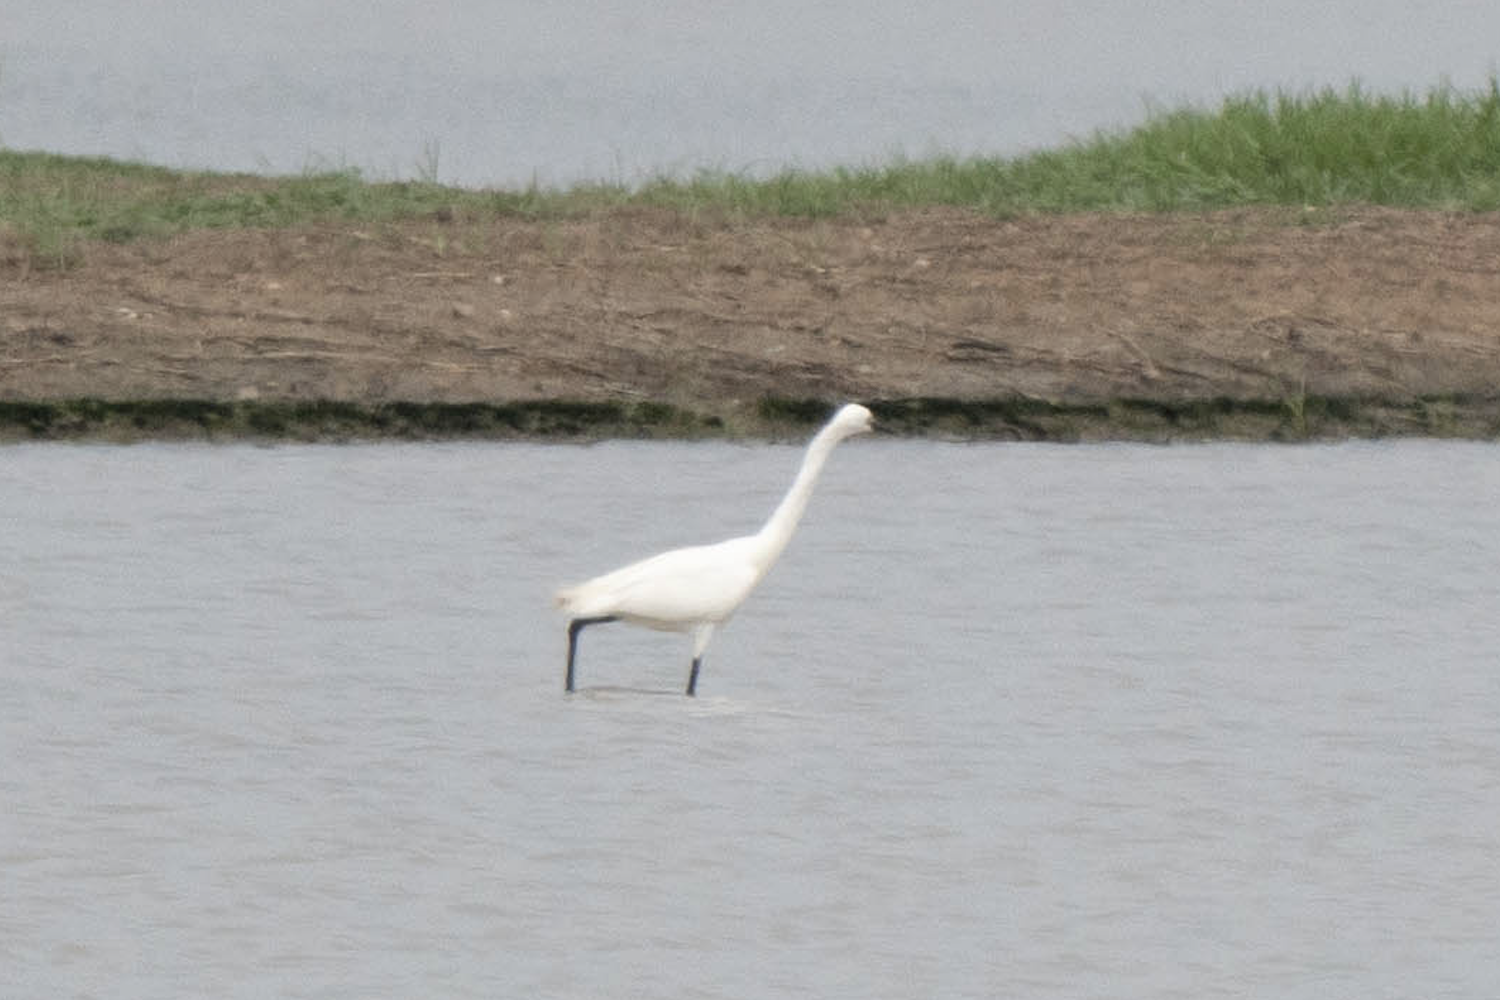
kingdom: Animalia
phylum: Chordata
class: Aves
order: Pelecaniformes
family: Ardeidae
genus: Egretta
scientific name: Egretta garzetta
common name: Little egret
